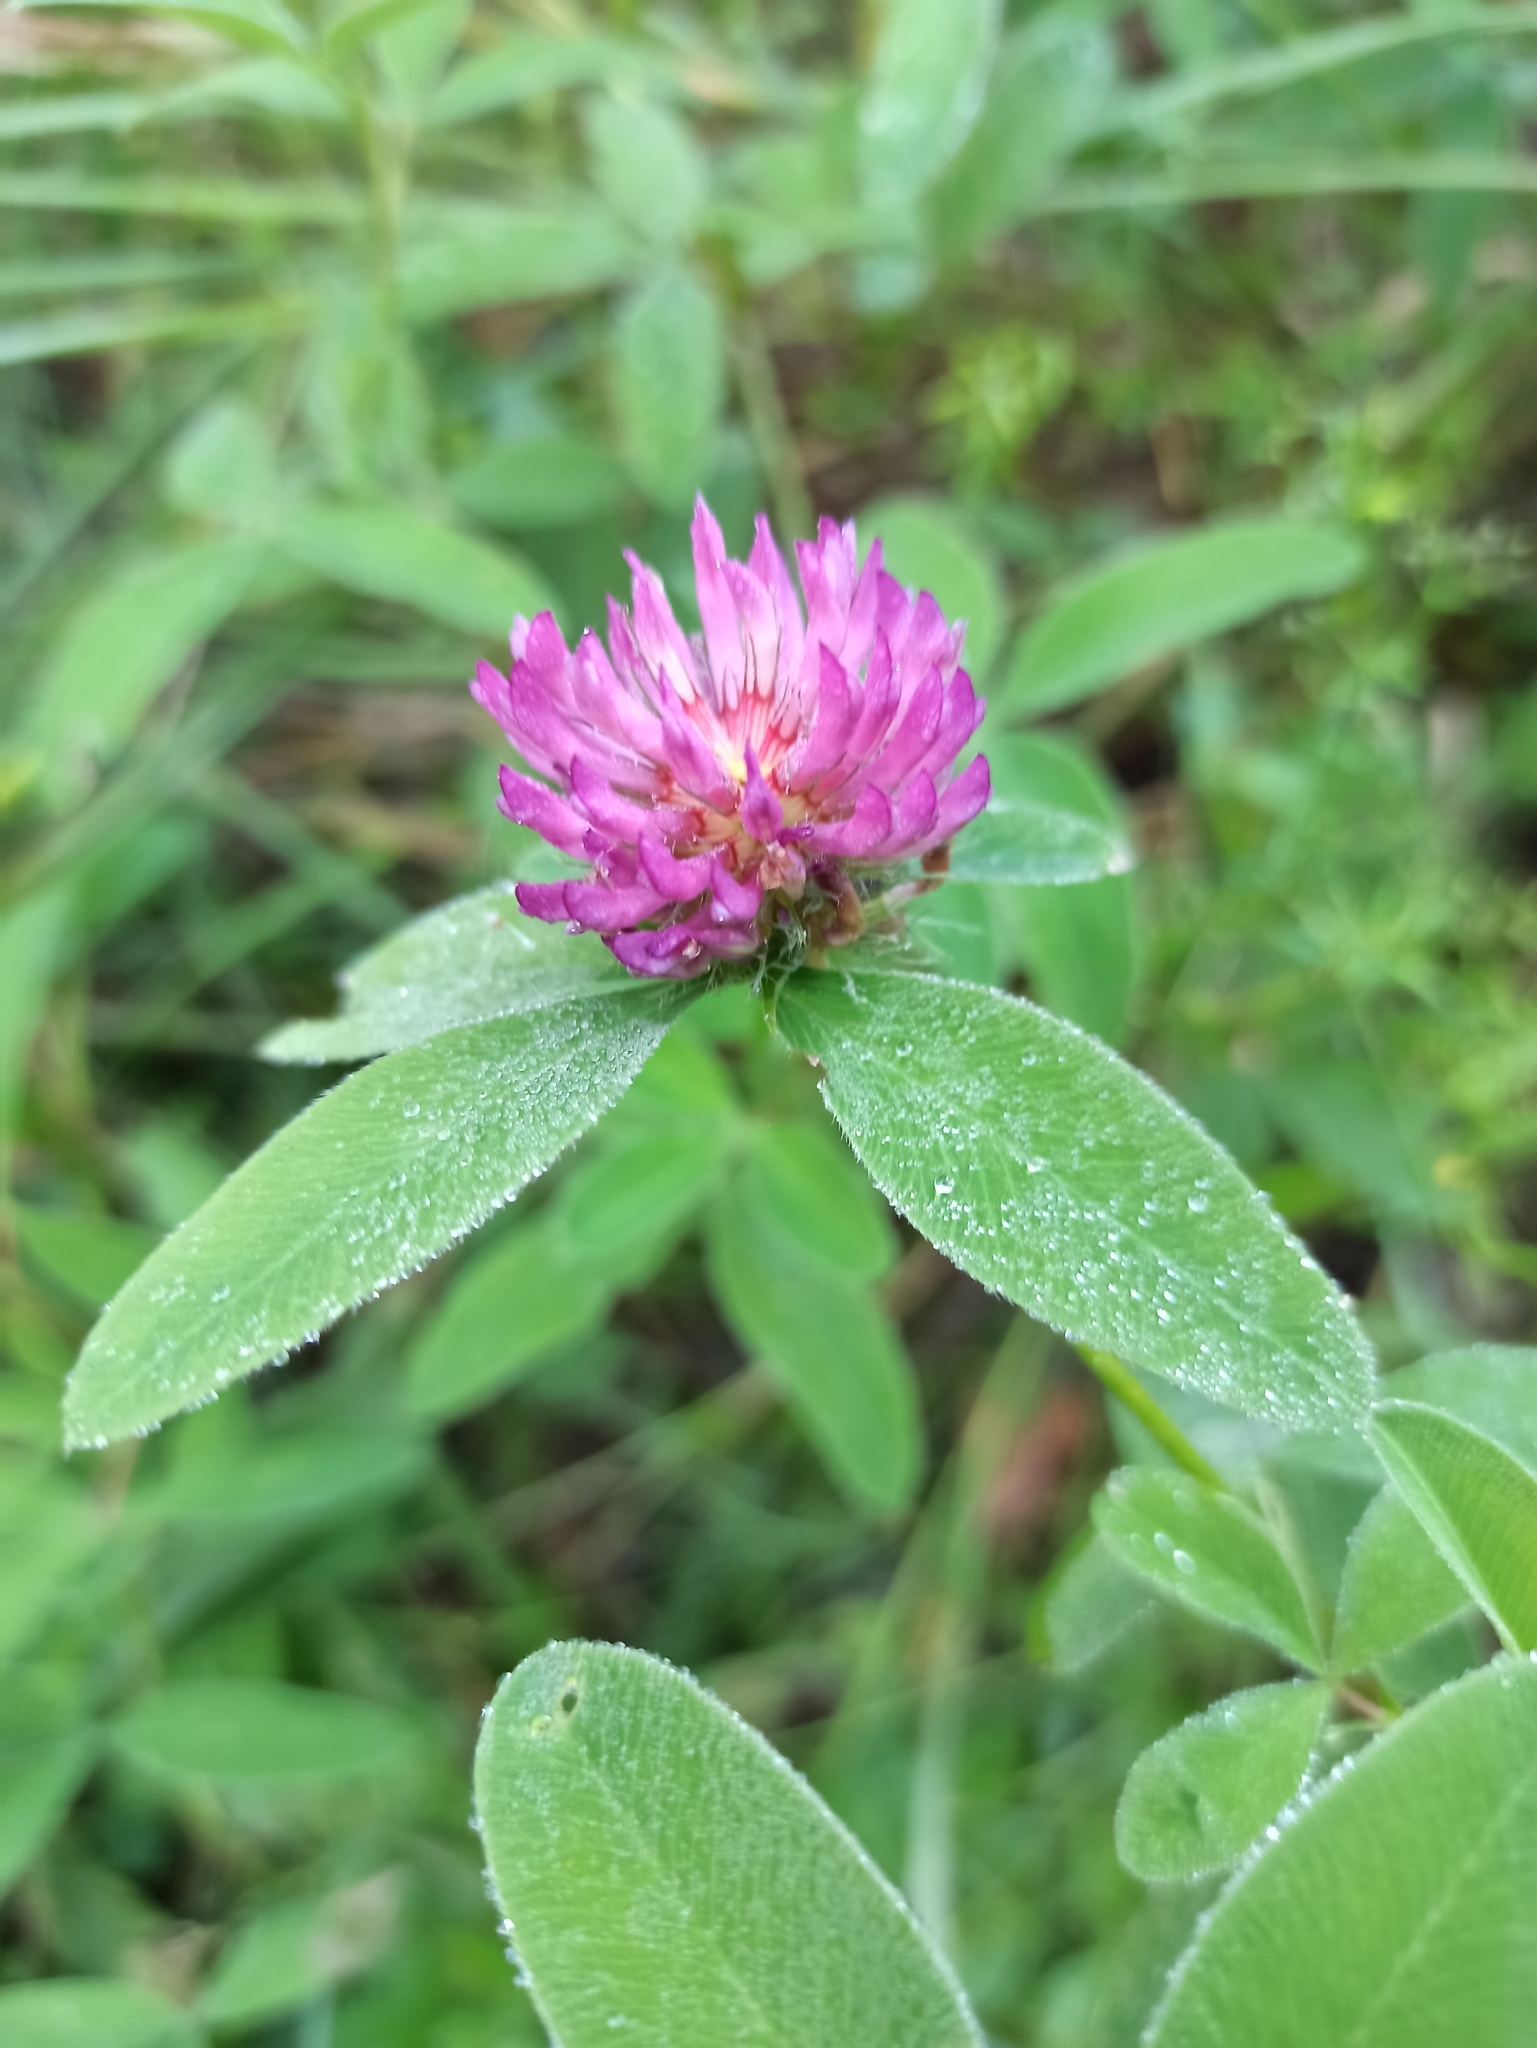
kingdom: Plantae
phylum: Tracheophyta
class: Magnoliopsida
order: Fabales
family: Fabaceae
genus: Trifolium
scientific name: Trifolium medium
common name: Zigzag clover
